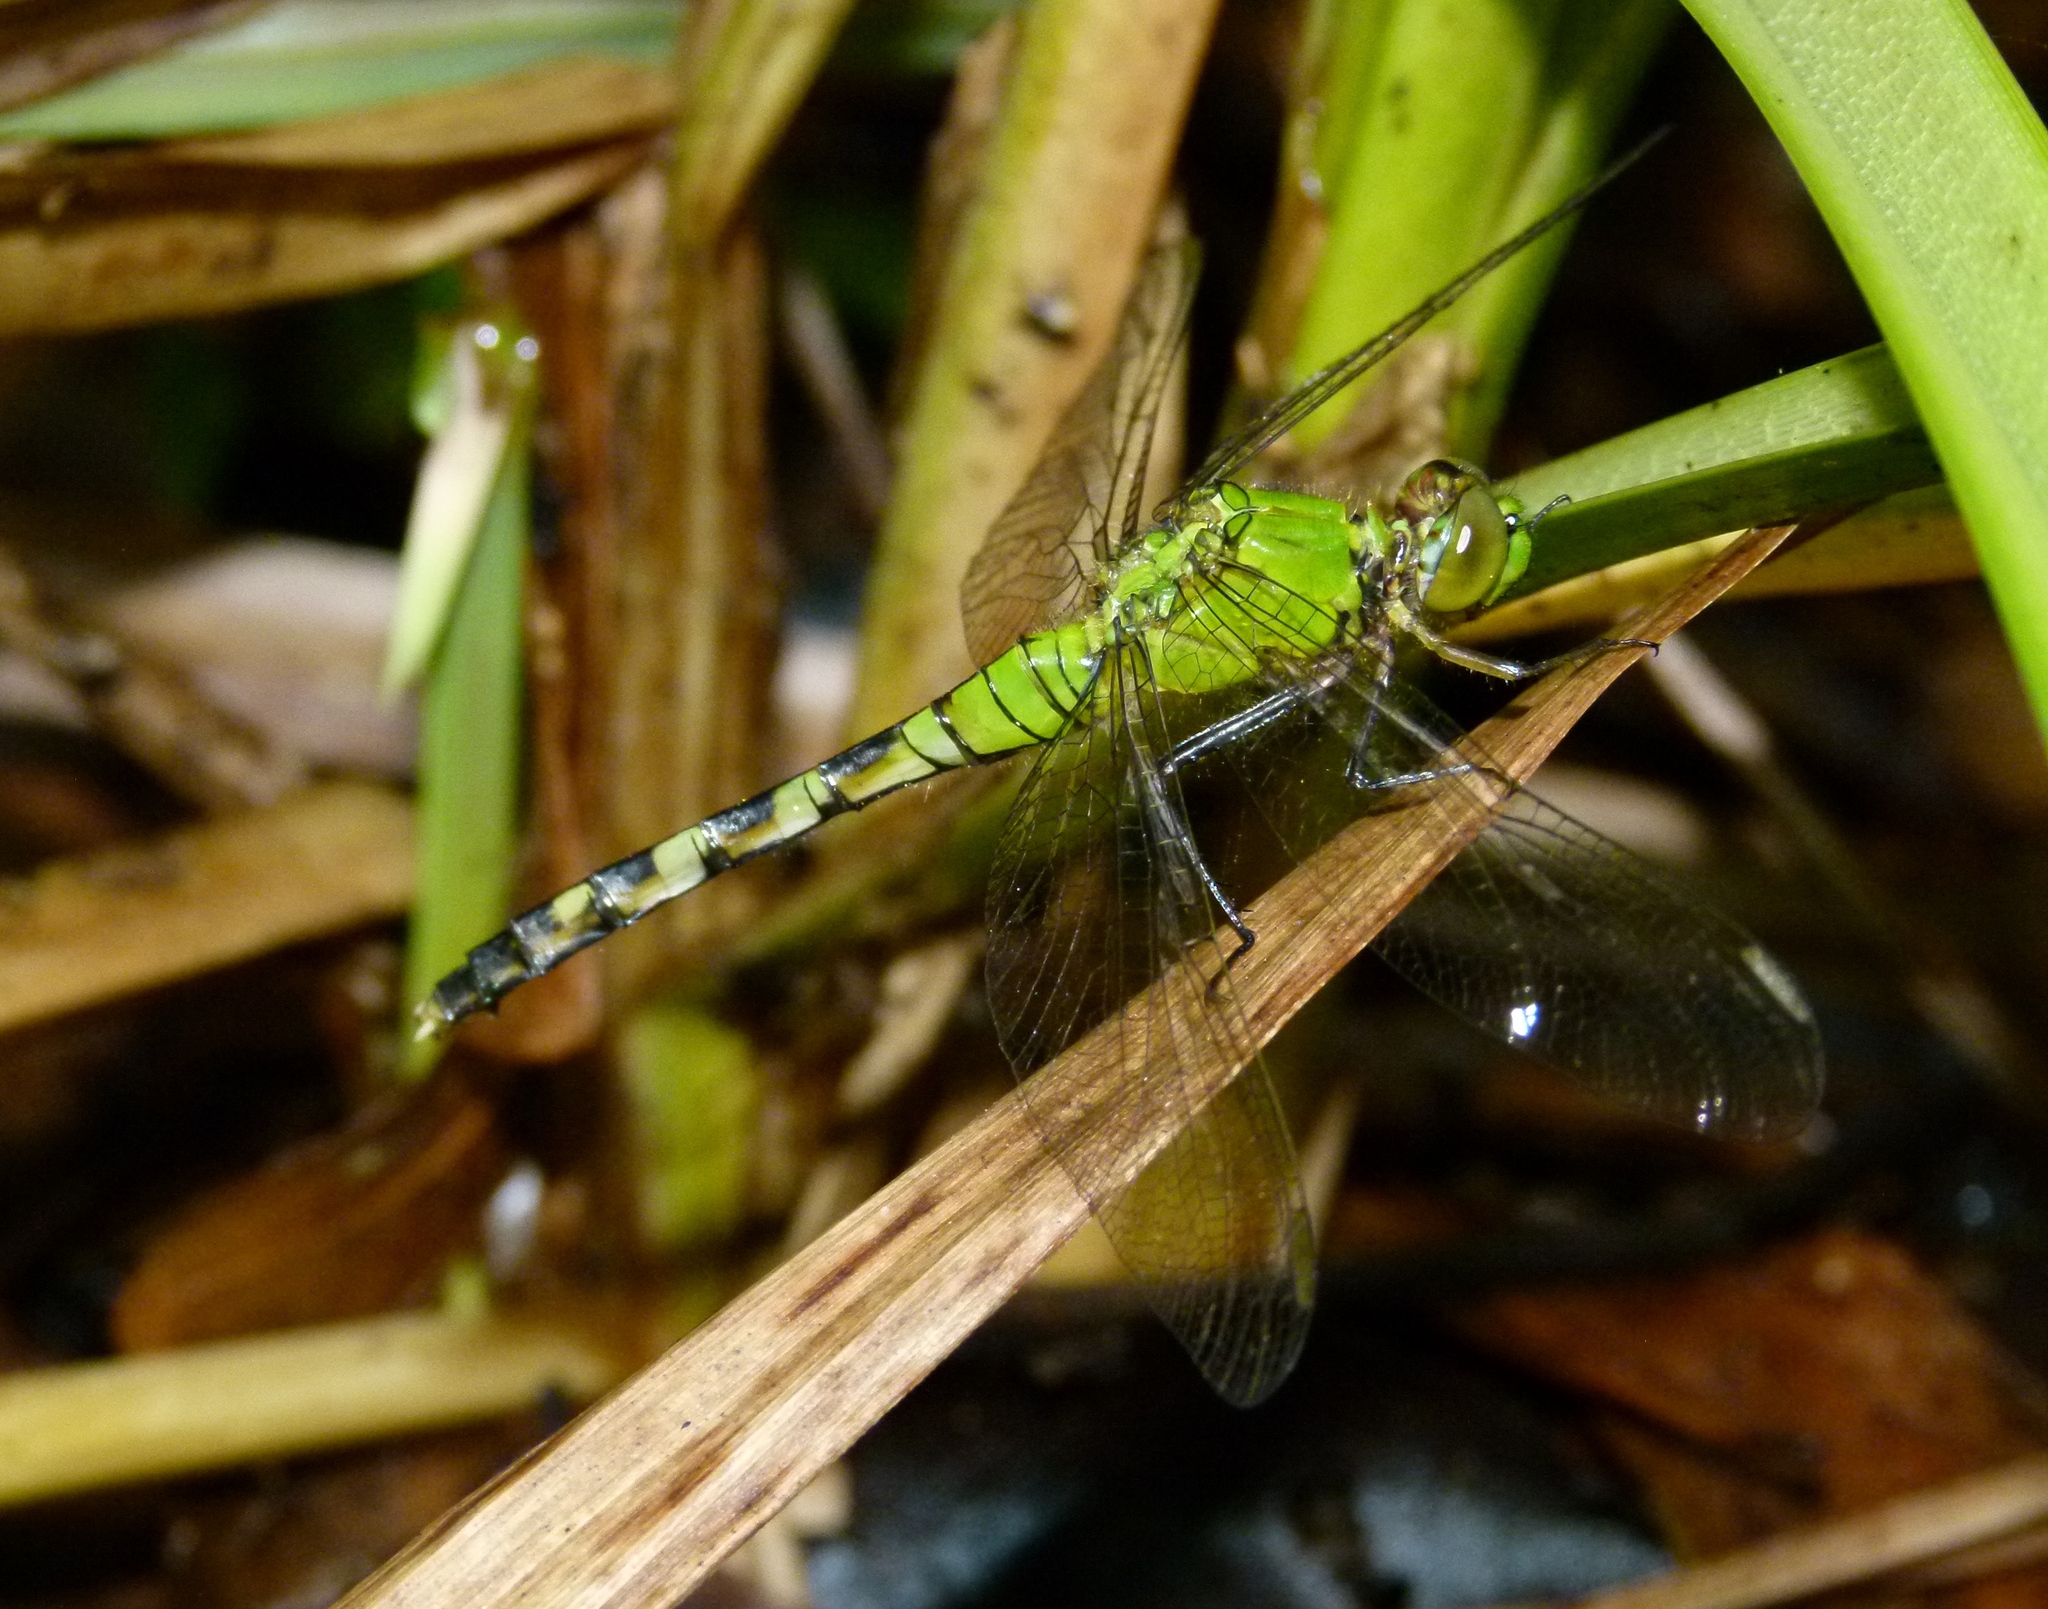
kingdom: Animalia
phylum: Arthropoda
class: Insecta
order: Odonata
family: Libellulidae
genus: Erythemis
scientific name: Erythemis simplicicollis
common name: Eastern pondhawk
